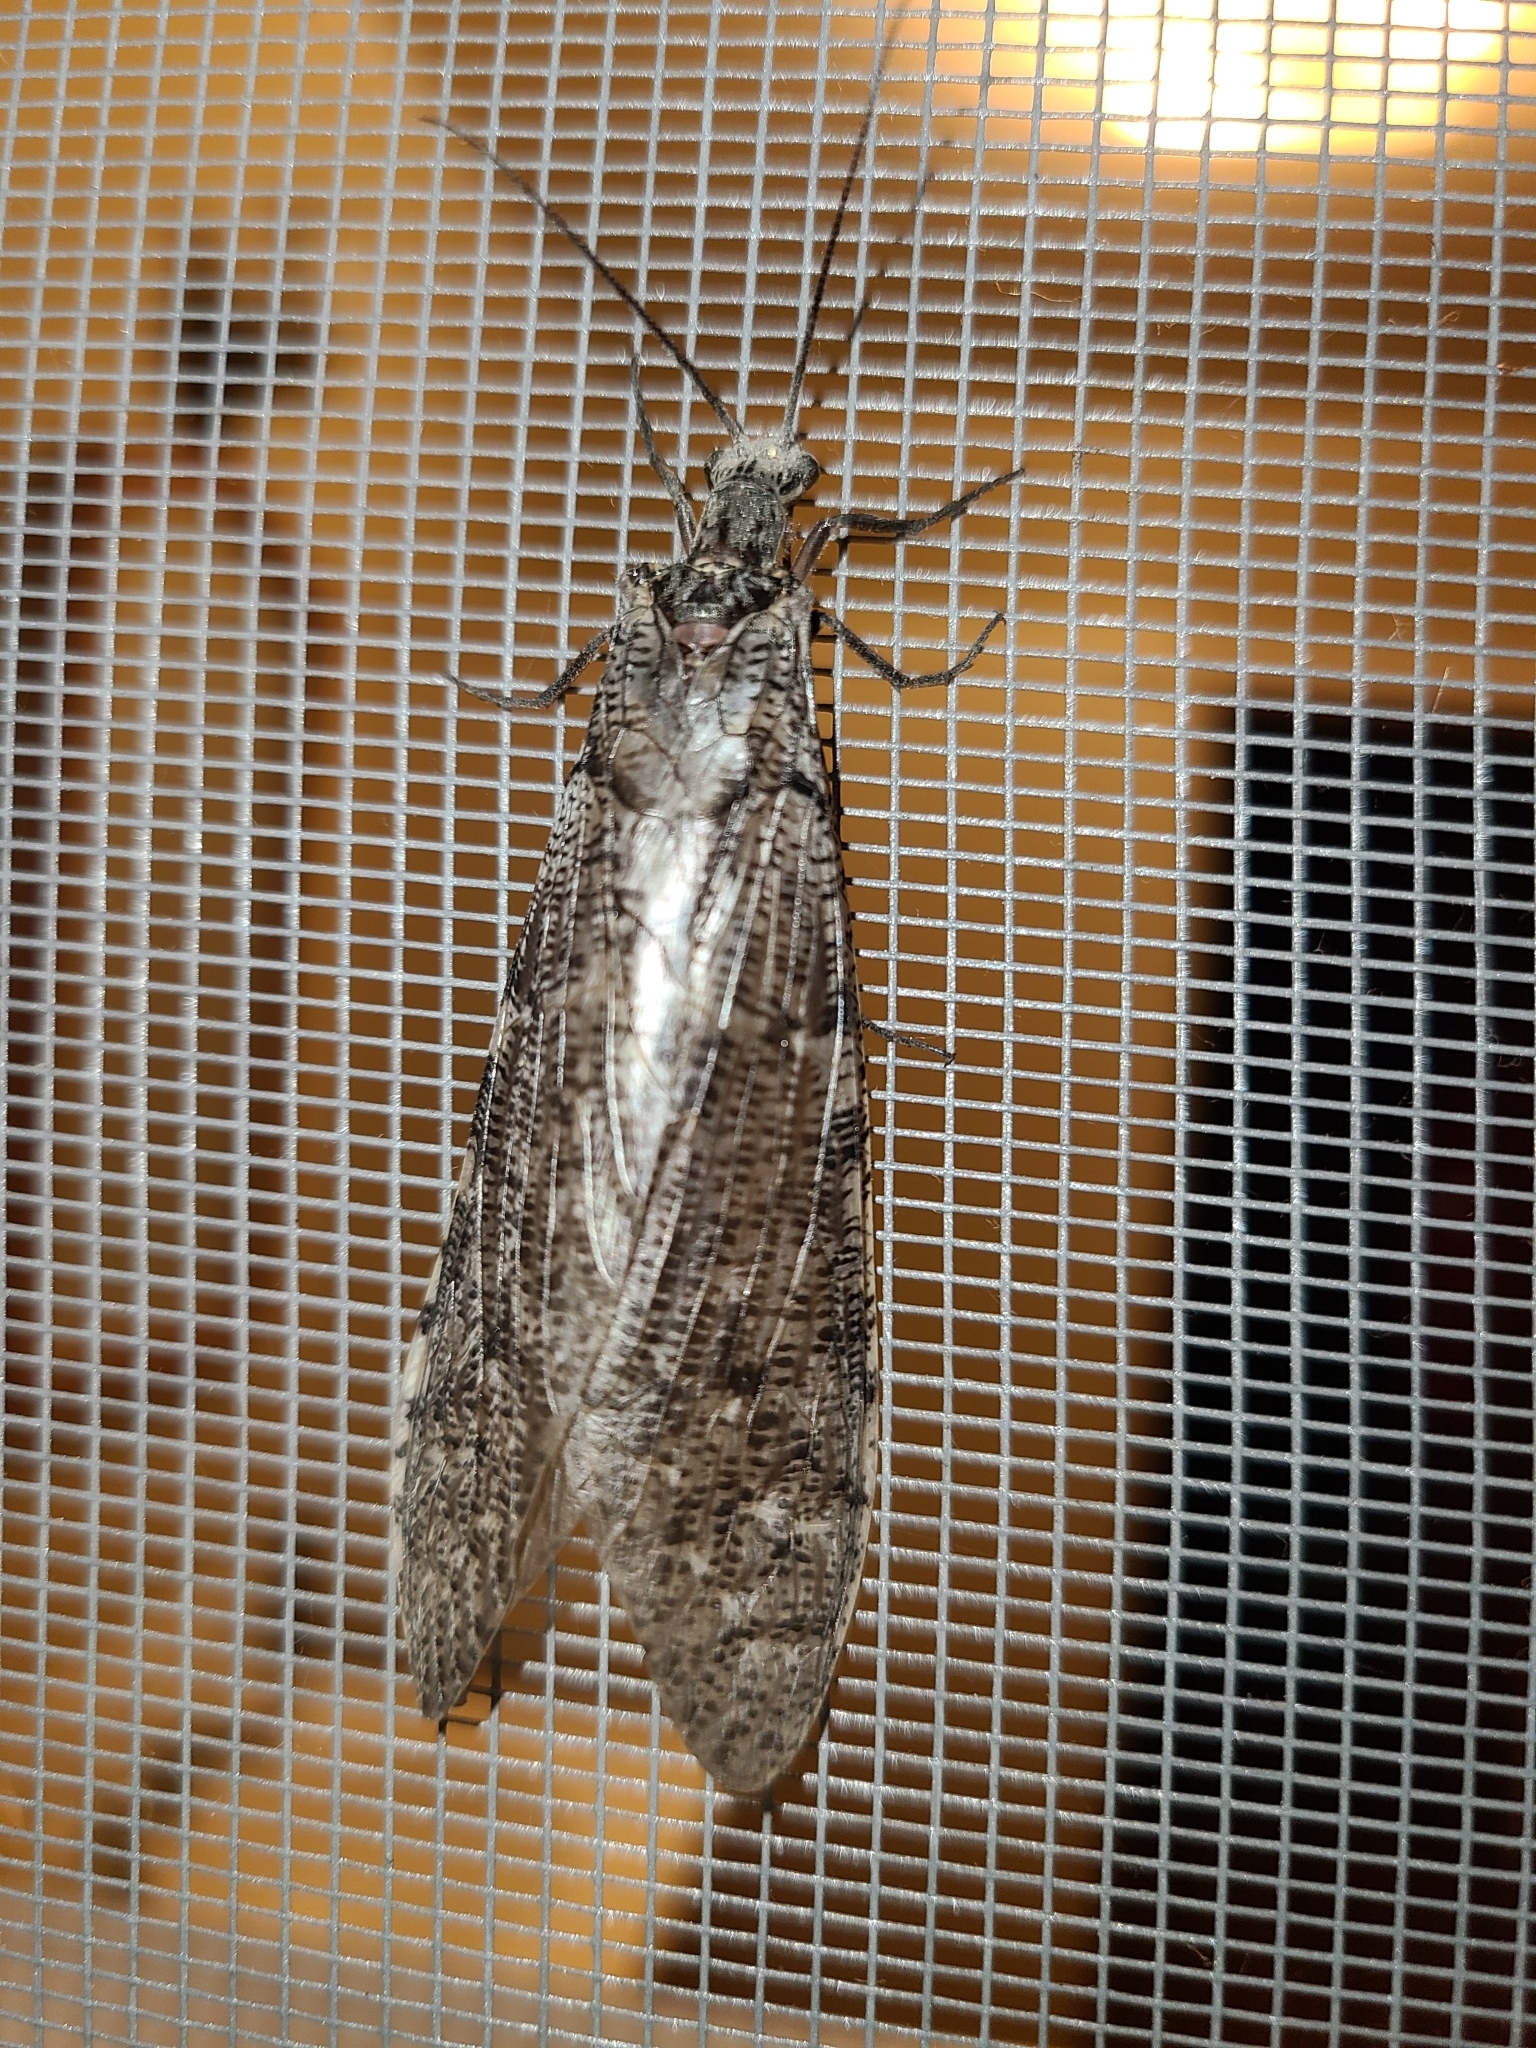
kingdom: Animalia
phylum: Arthropoda
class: Insecta
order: Megaloptera
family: Corydalidae
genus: Neohermes
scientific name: Neohermes californicus
